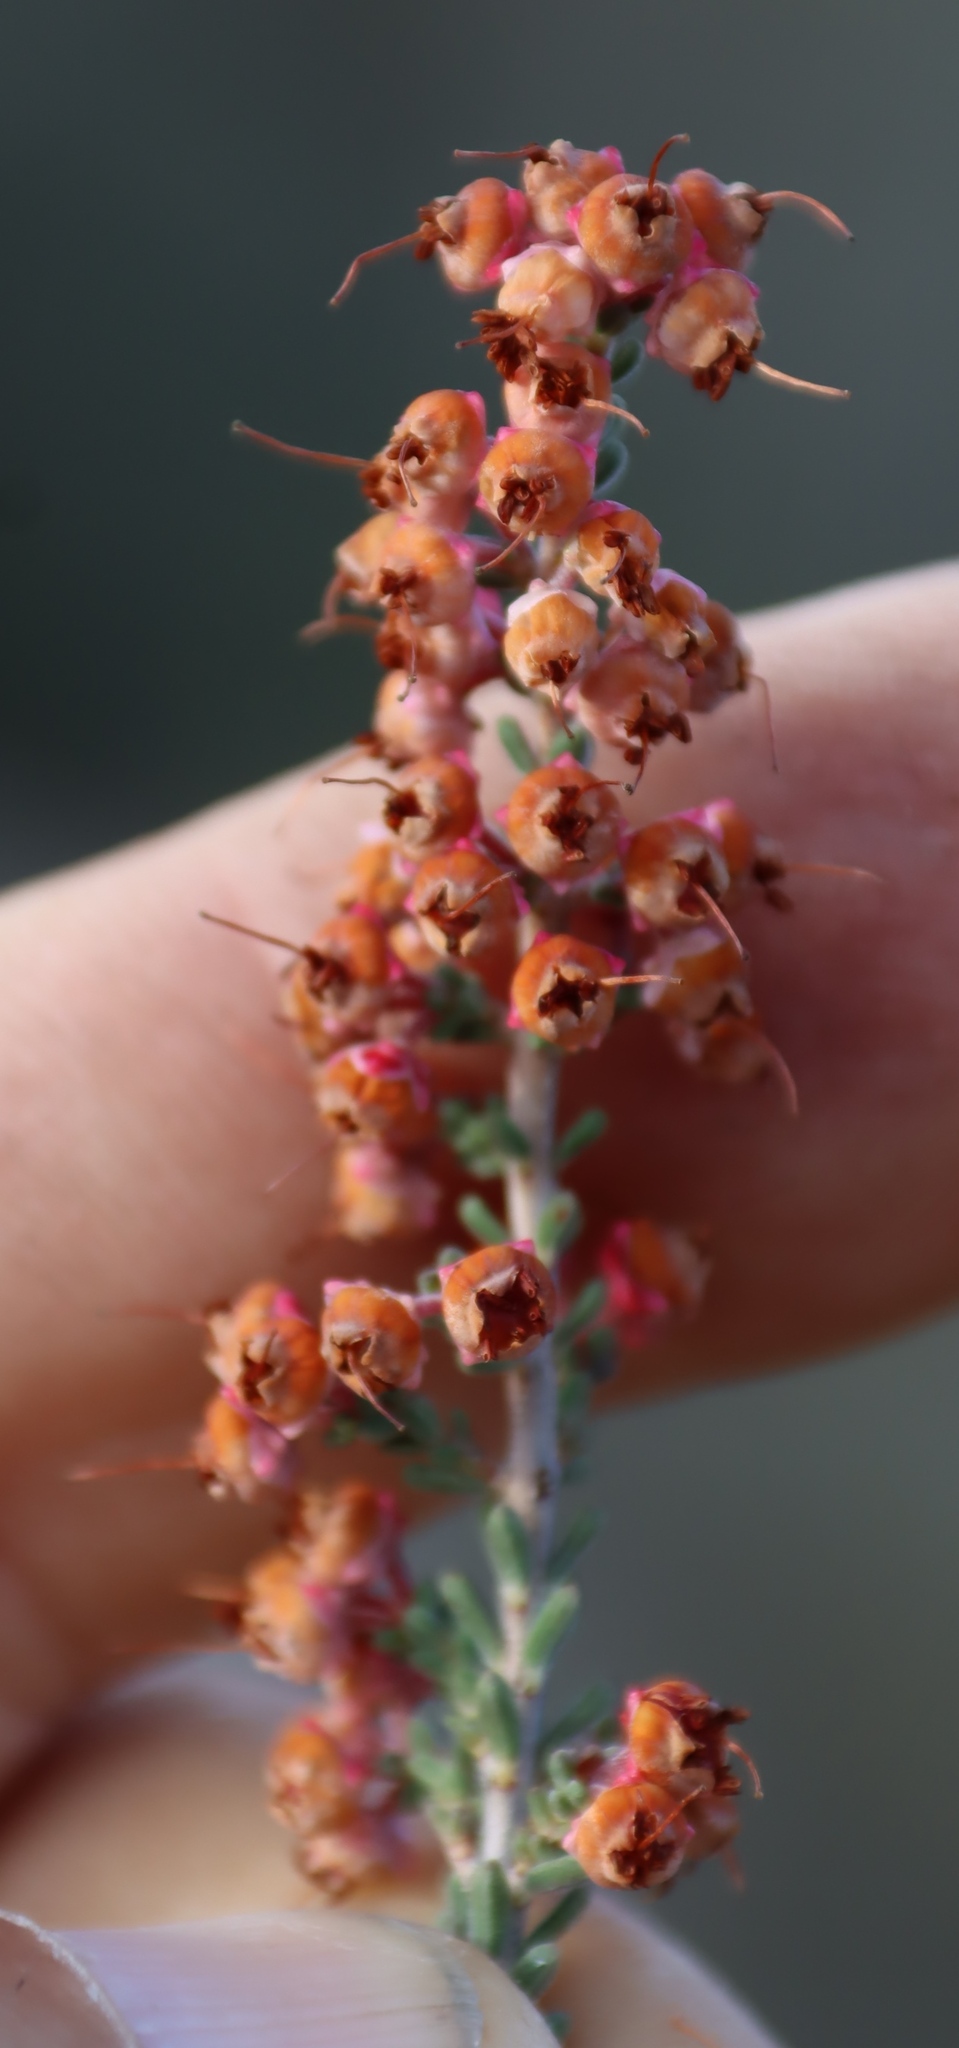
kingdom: Plantae
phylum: Tracheophyta
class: Magnoliopsida
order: Ericales
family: Ericaceae
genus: Erica
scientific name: Erica umbelliflora
